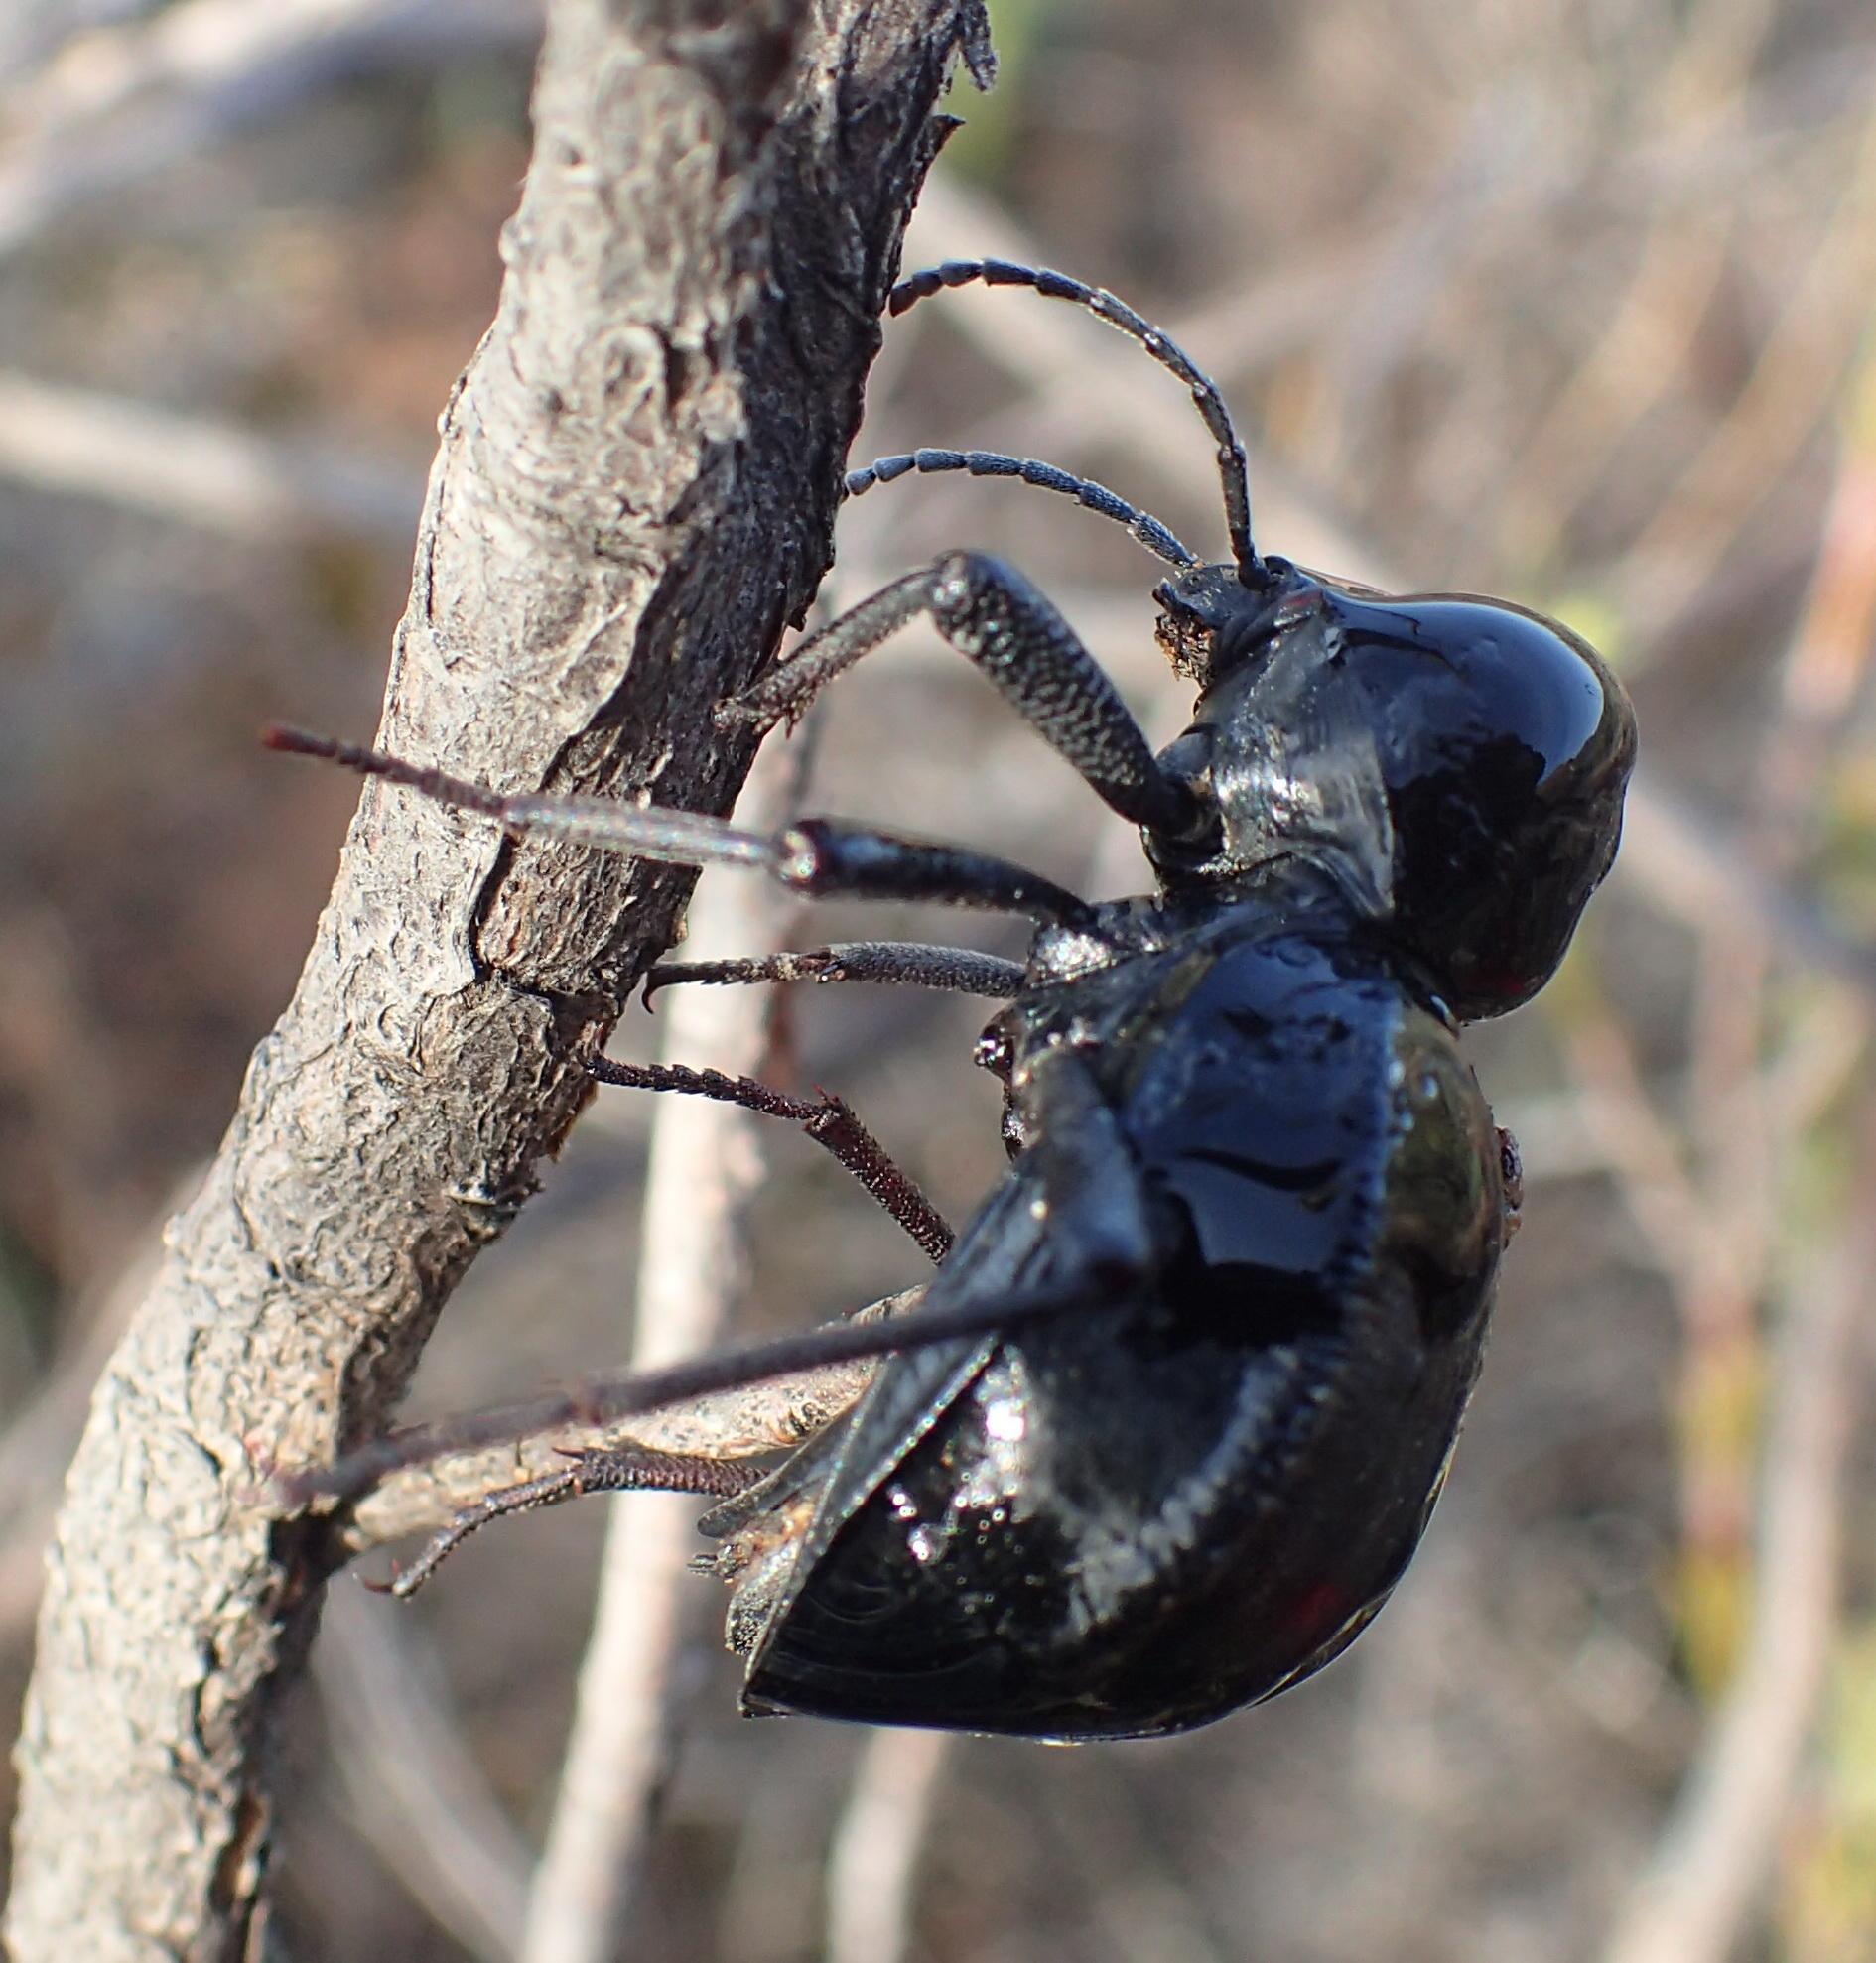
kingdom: Animalia
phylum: Arthropoda
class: Insecta
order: Coleoptera
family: Tenebrionidae
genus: Moluris
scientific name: Moluris gibba
